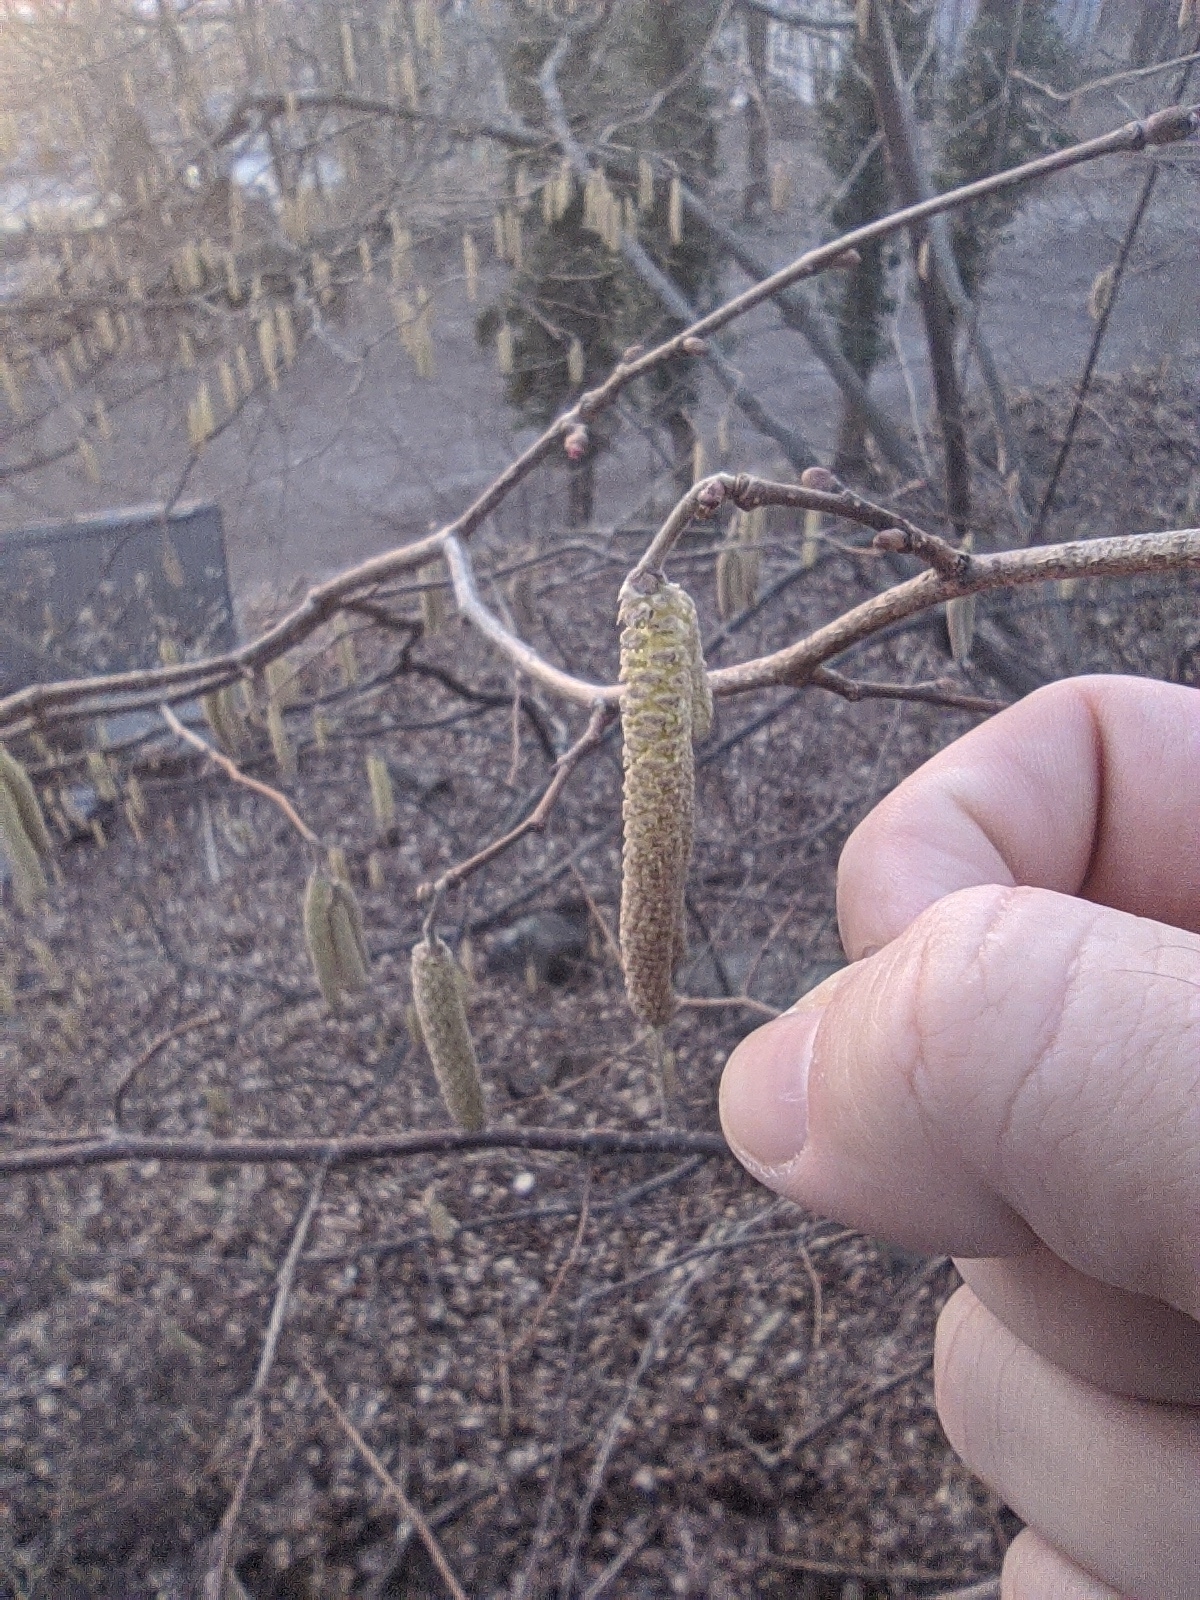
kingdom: Plantae
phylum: Tracheophyta
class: Magnoliopsida
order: Fagales
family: Betulaceae
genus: Corylus
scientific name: Corylus avellana
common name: European hazel
